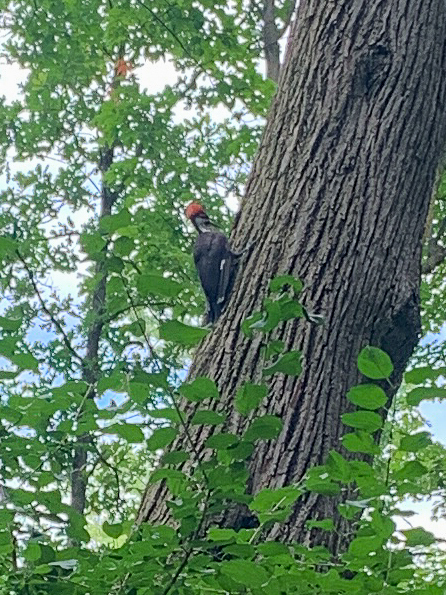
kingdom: Animalia
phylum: Chordata
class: Aves
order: Piciformes
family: Picidae
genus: Dryocopus
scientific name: Dryocopus pileatus
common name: Pileated woodpecker
